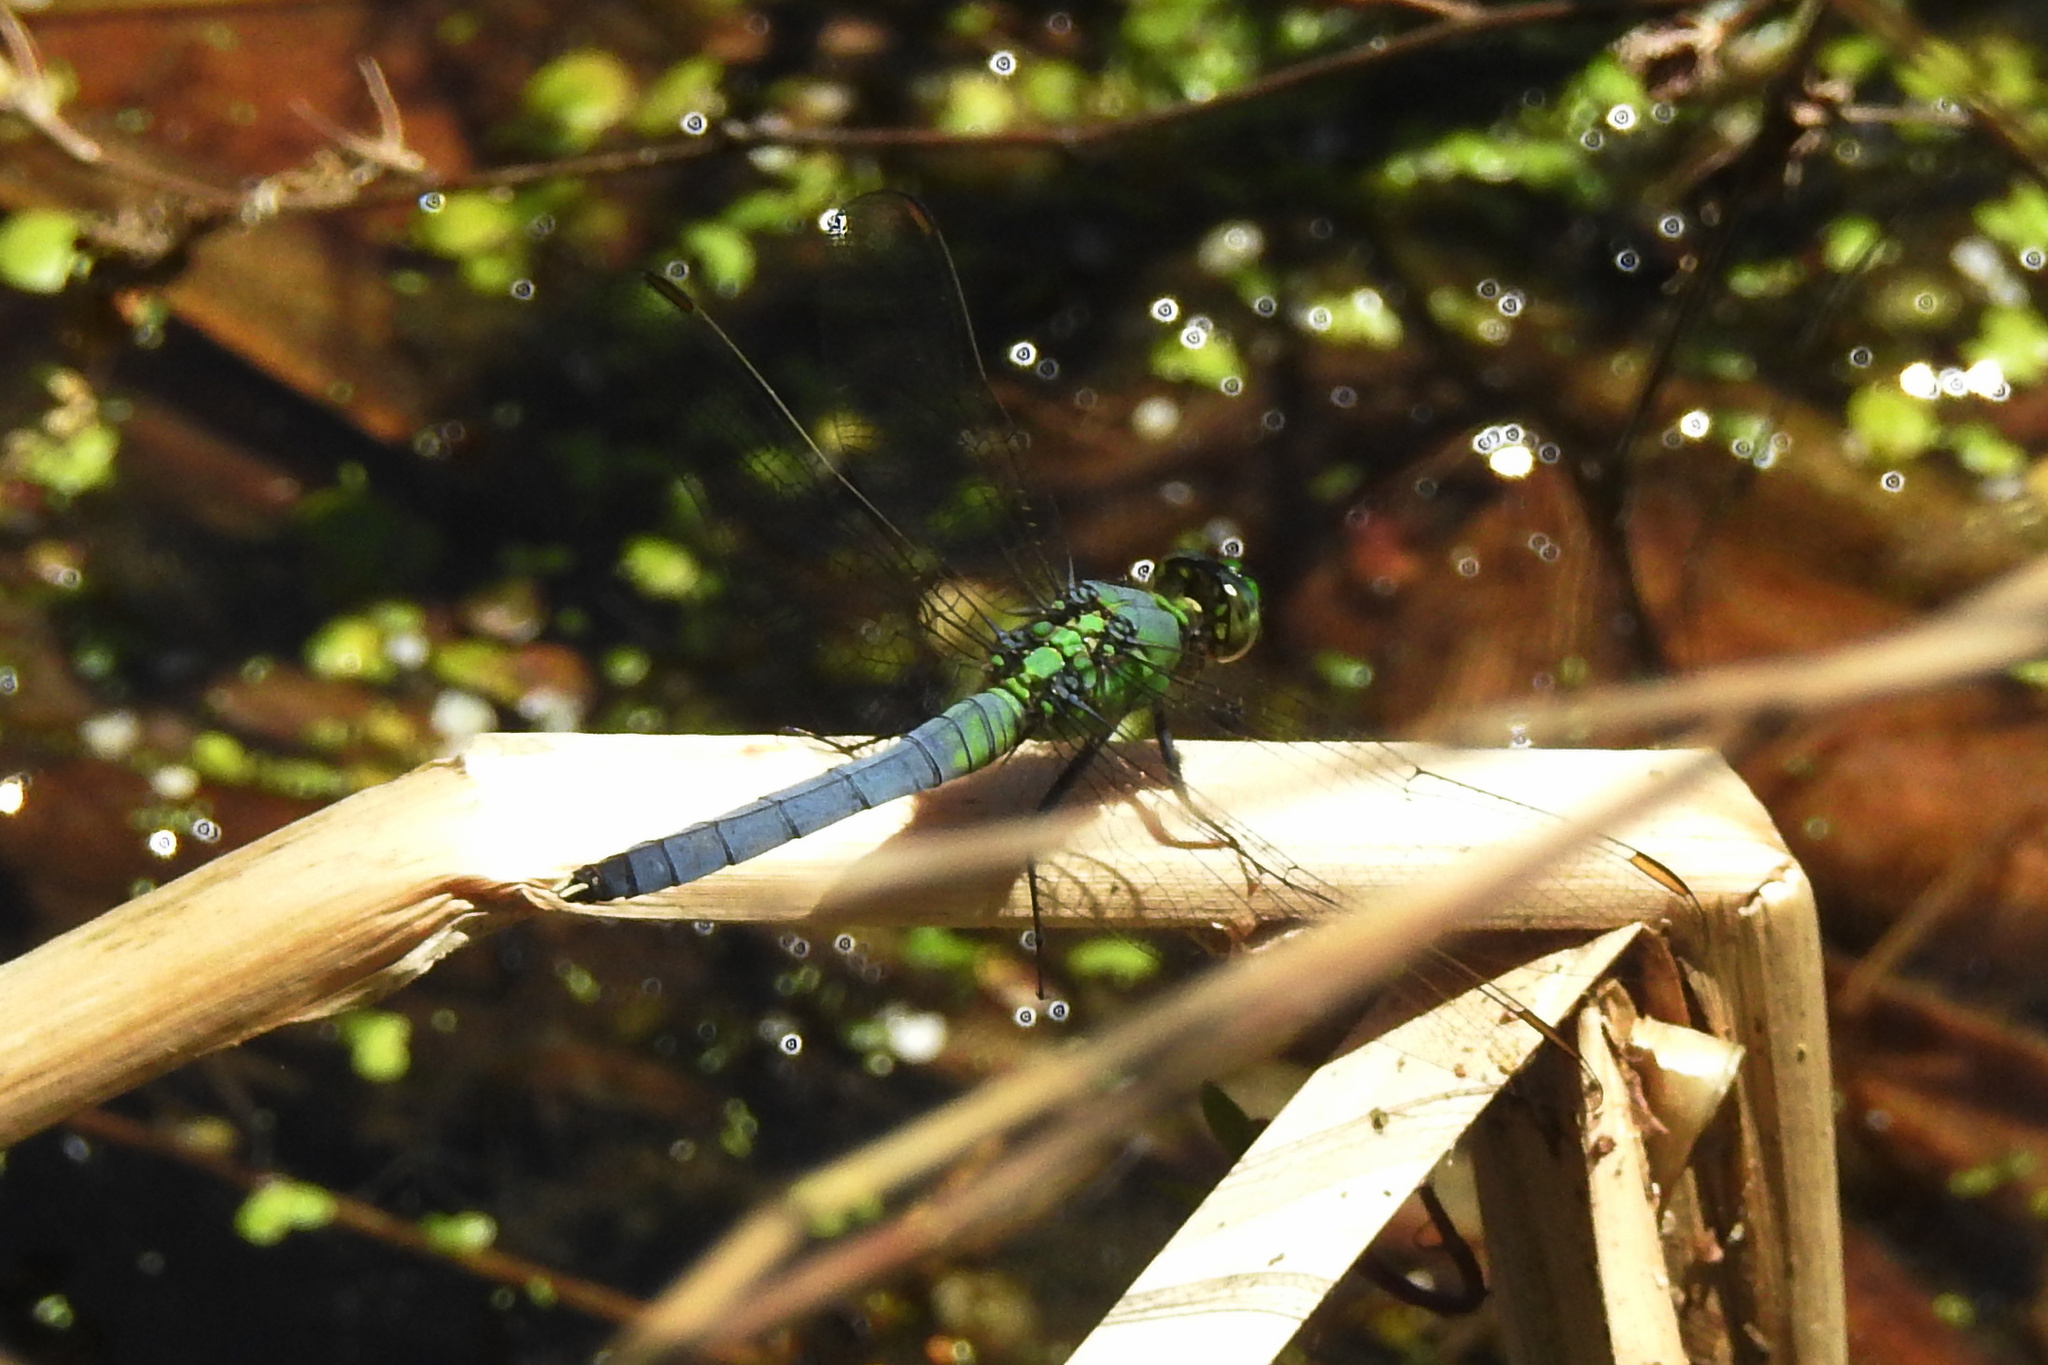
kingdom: Animalia
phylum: Arthropoda
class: Insecta
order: Odonata
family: Libellulidae
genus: Erythemis
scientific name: Erythemis simplicicollis
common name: Eastern pondhawk
